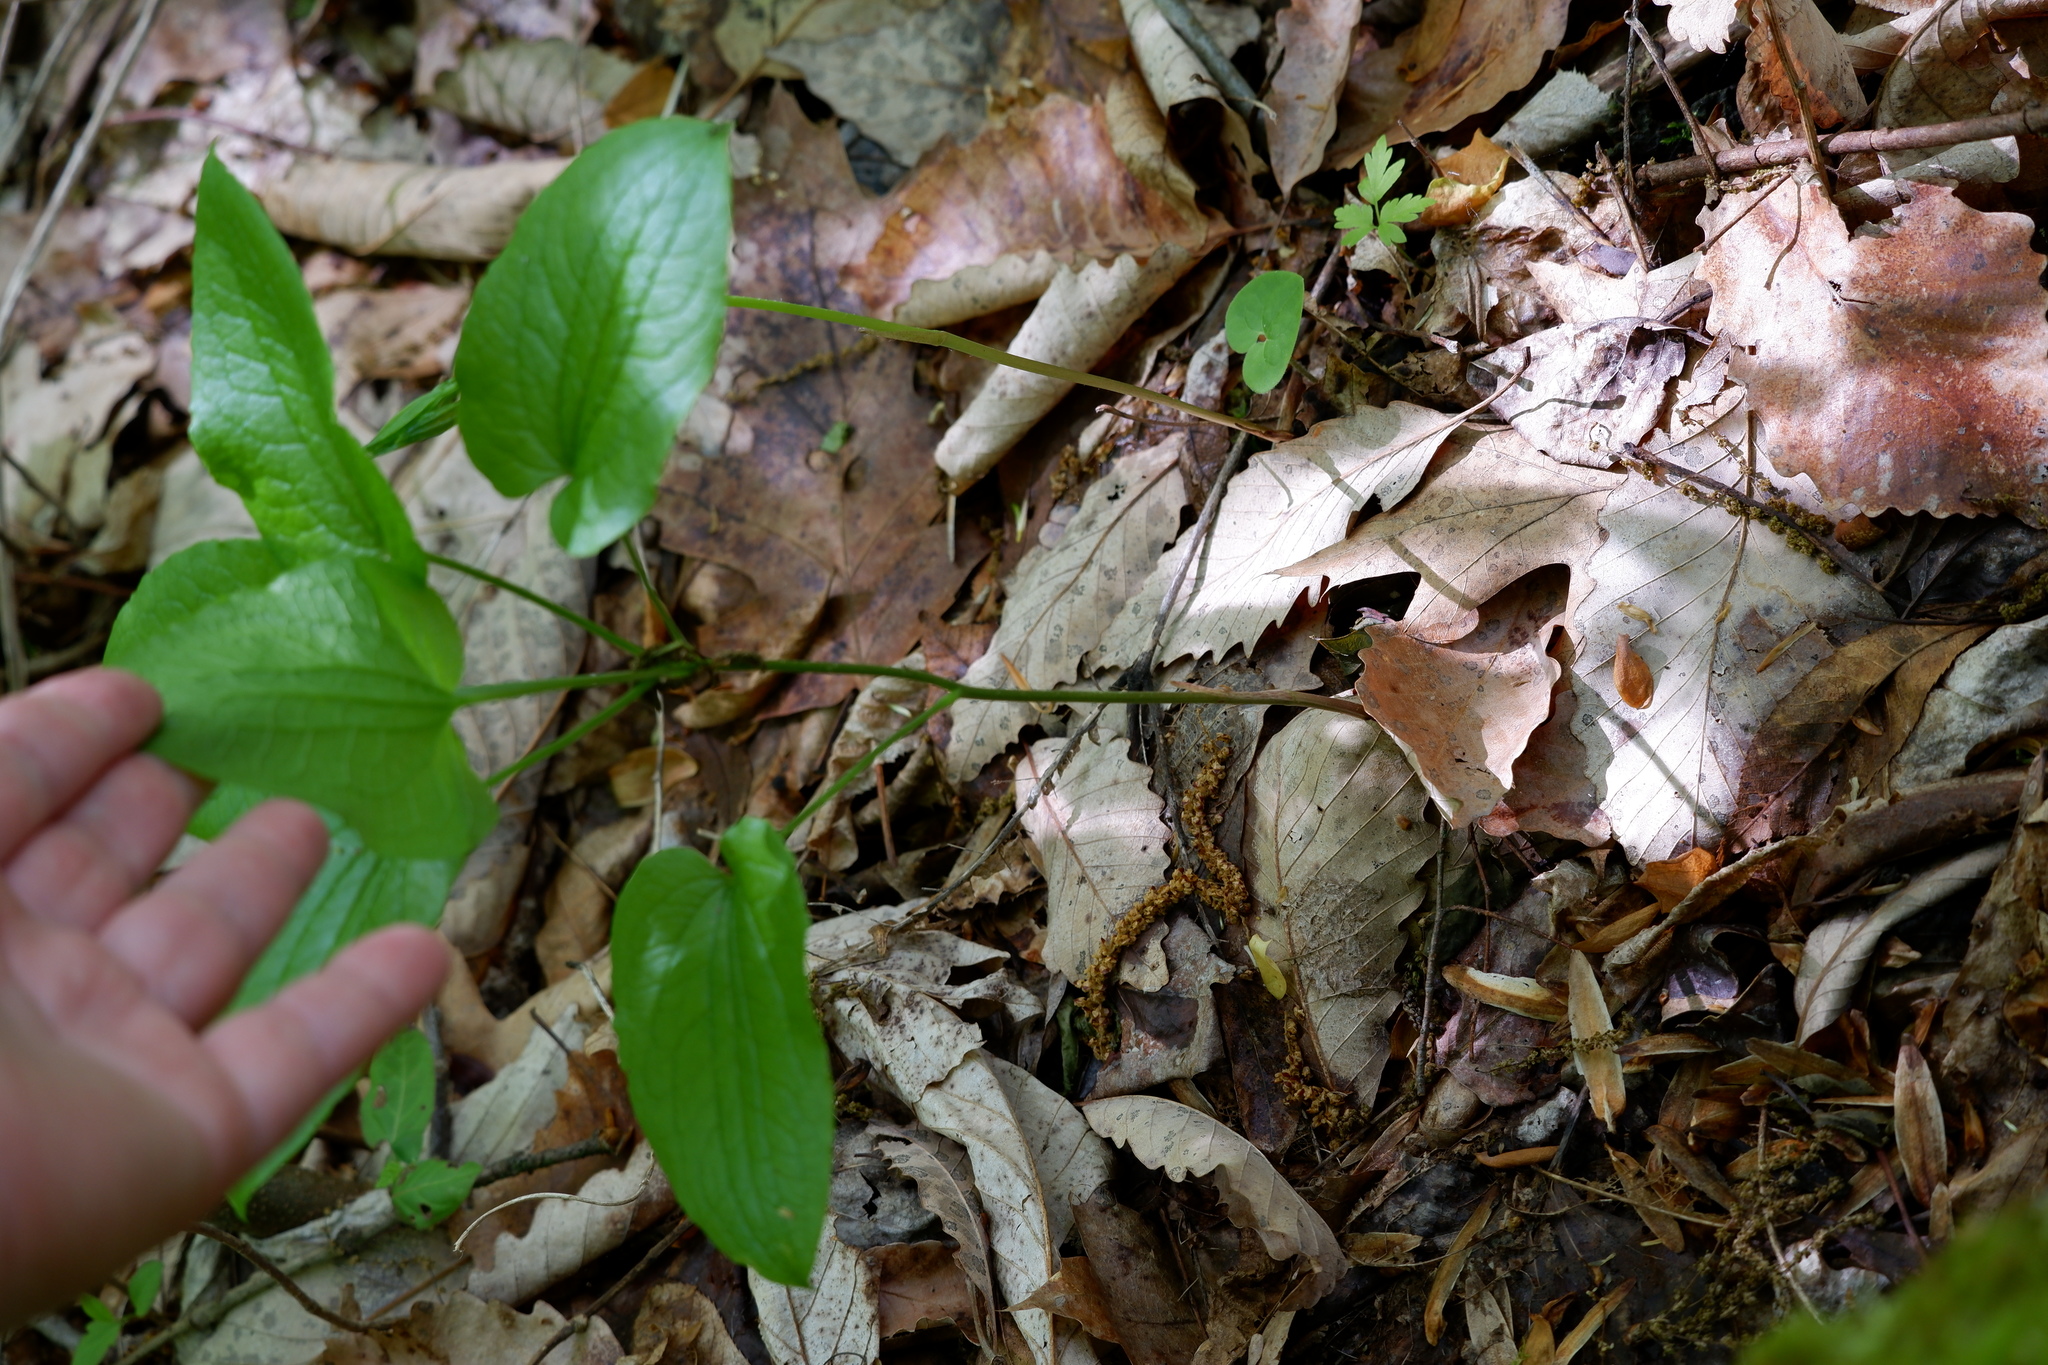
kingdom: Plantae
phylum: Tracheophyta
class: Liliopsida
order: Liliales
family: Smilacaceae
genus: Smilax
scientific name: Smilax pulverulenta
